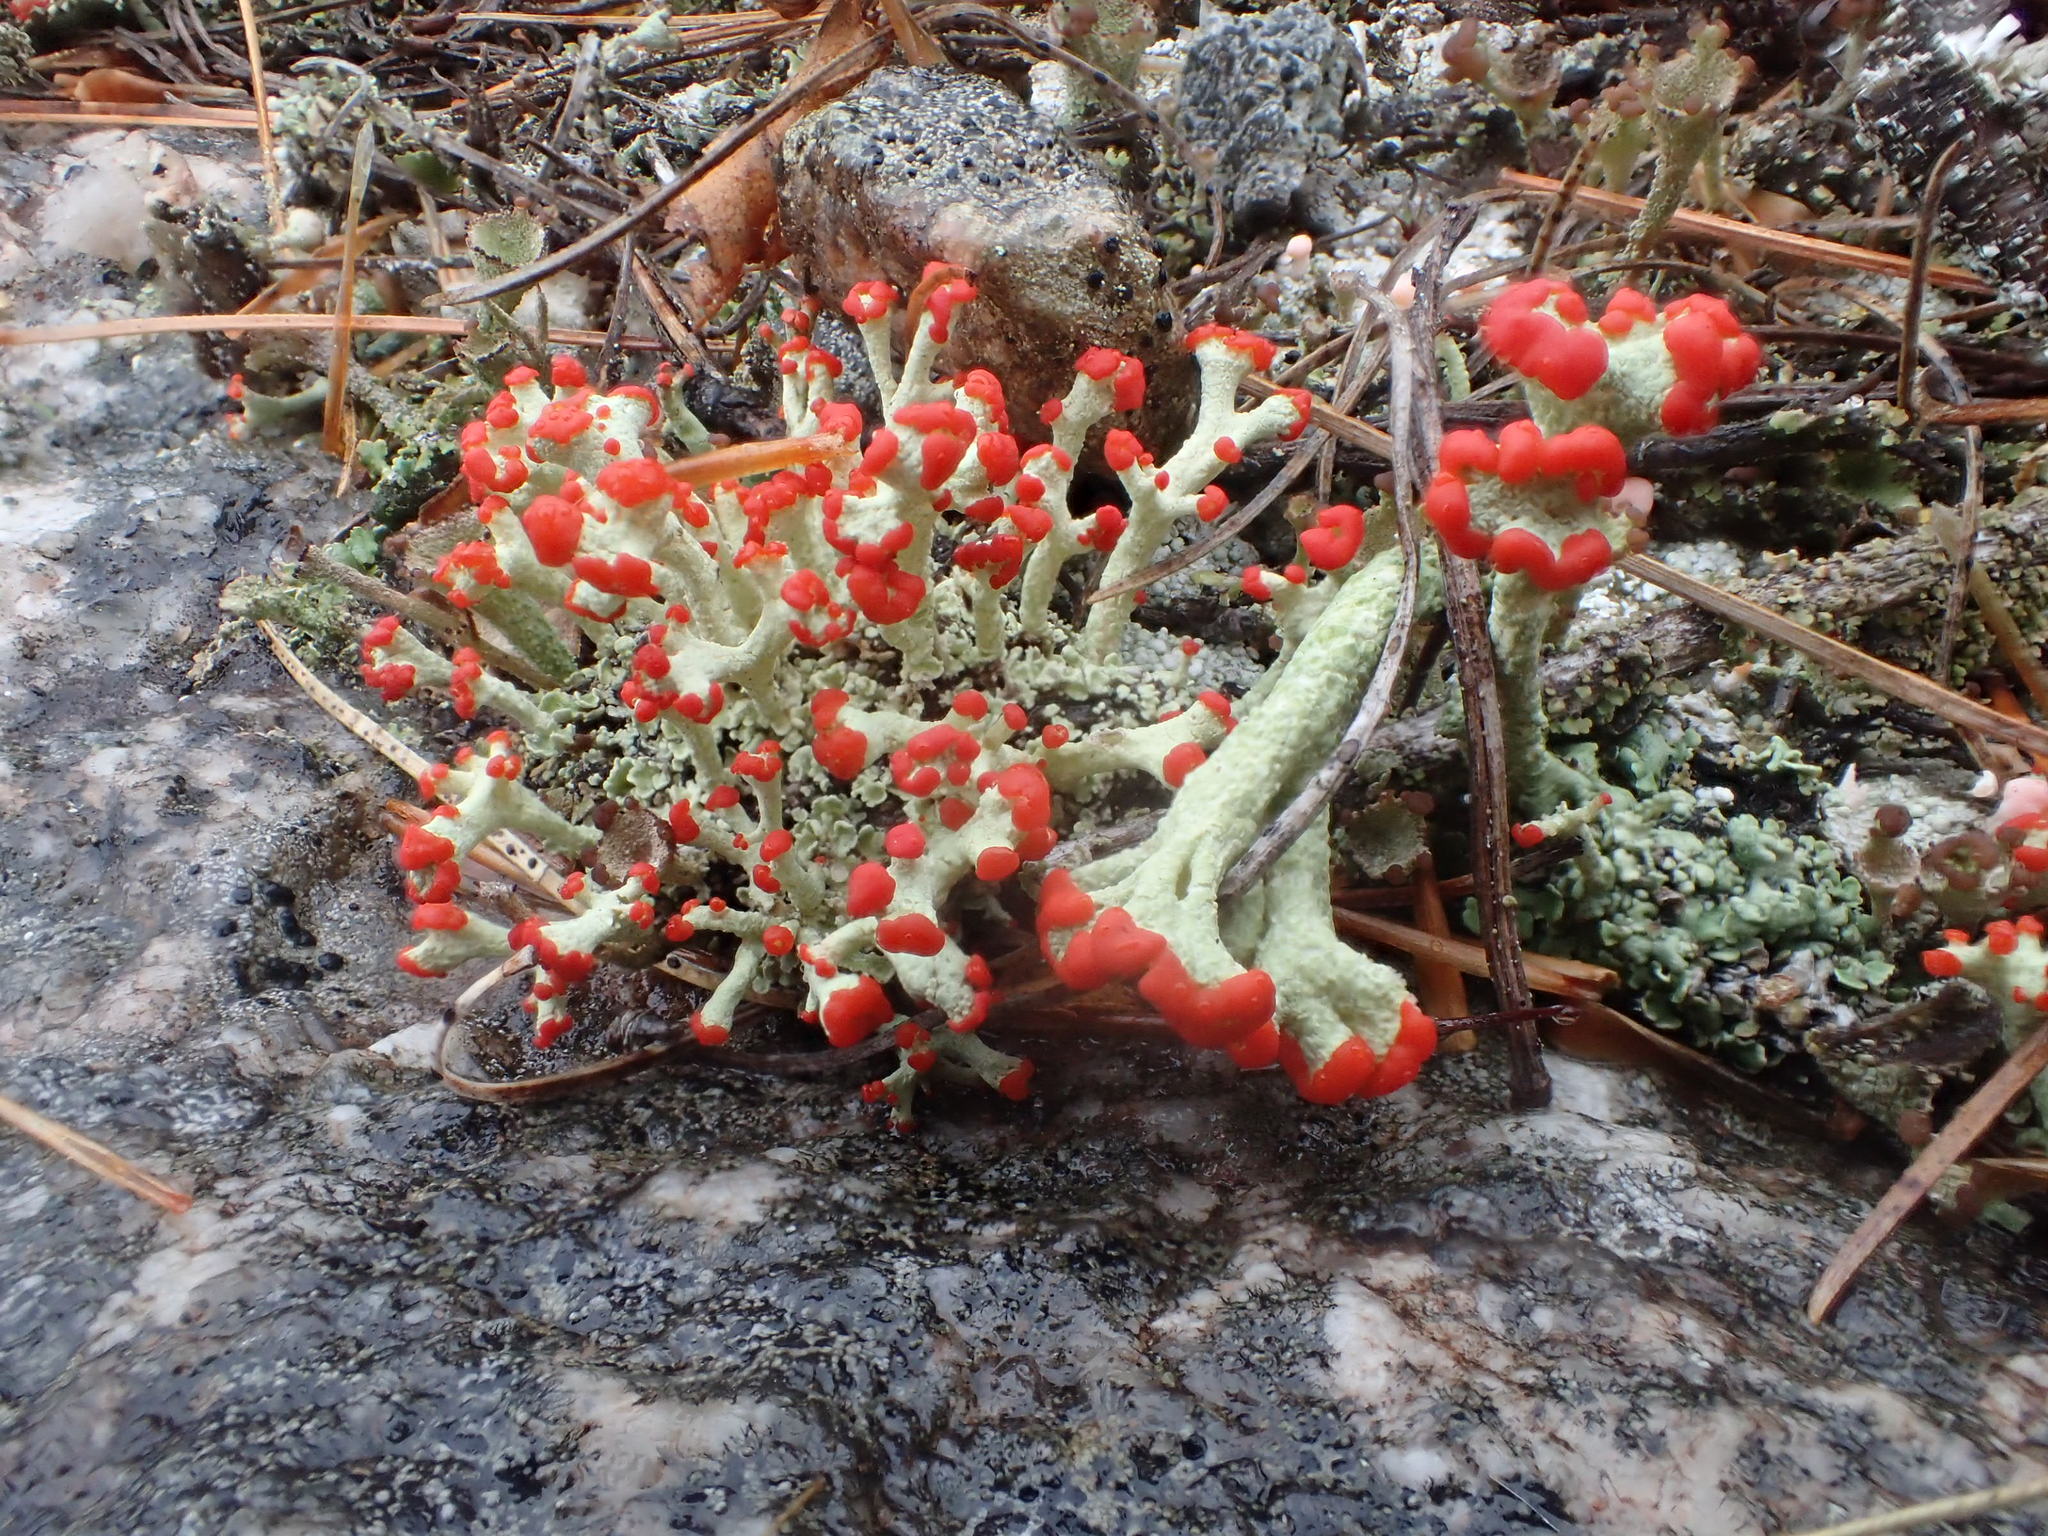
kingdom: Fungi
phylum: Ascomycota
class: Lecanoromycetes
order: Lecanorales
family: Cladoniaceae
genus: Cladonia
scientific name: Cladonia cristatella
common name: British soldier lichen
